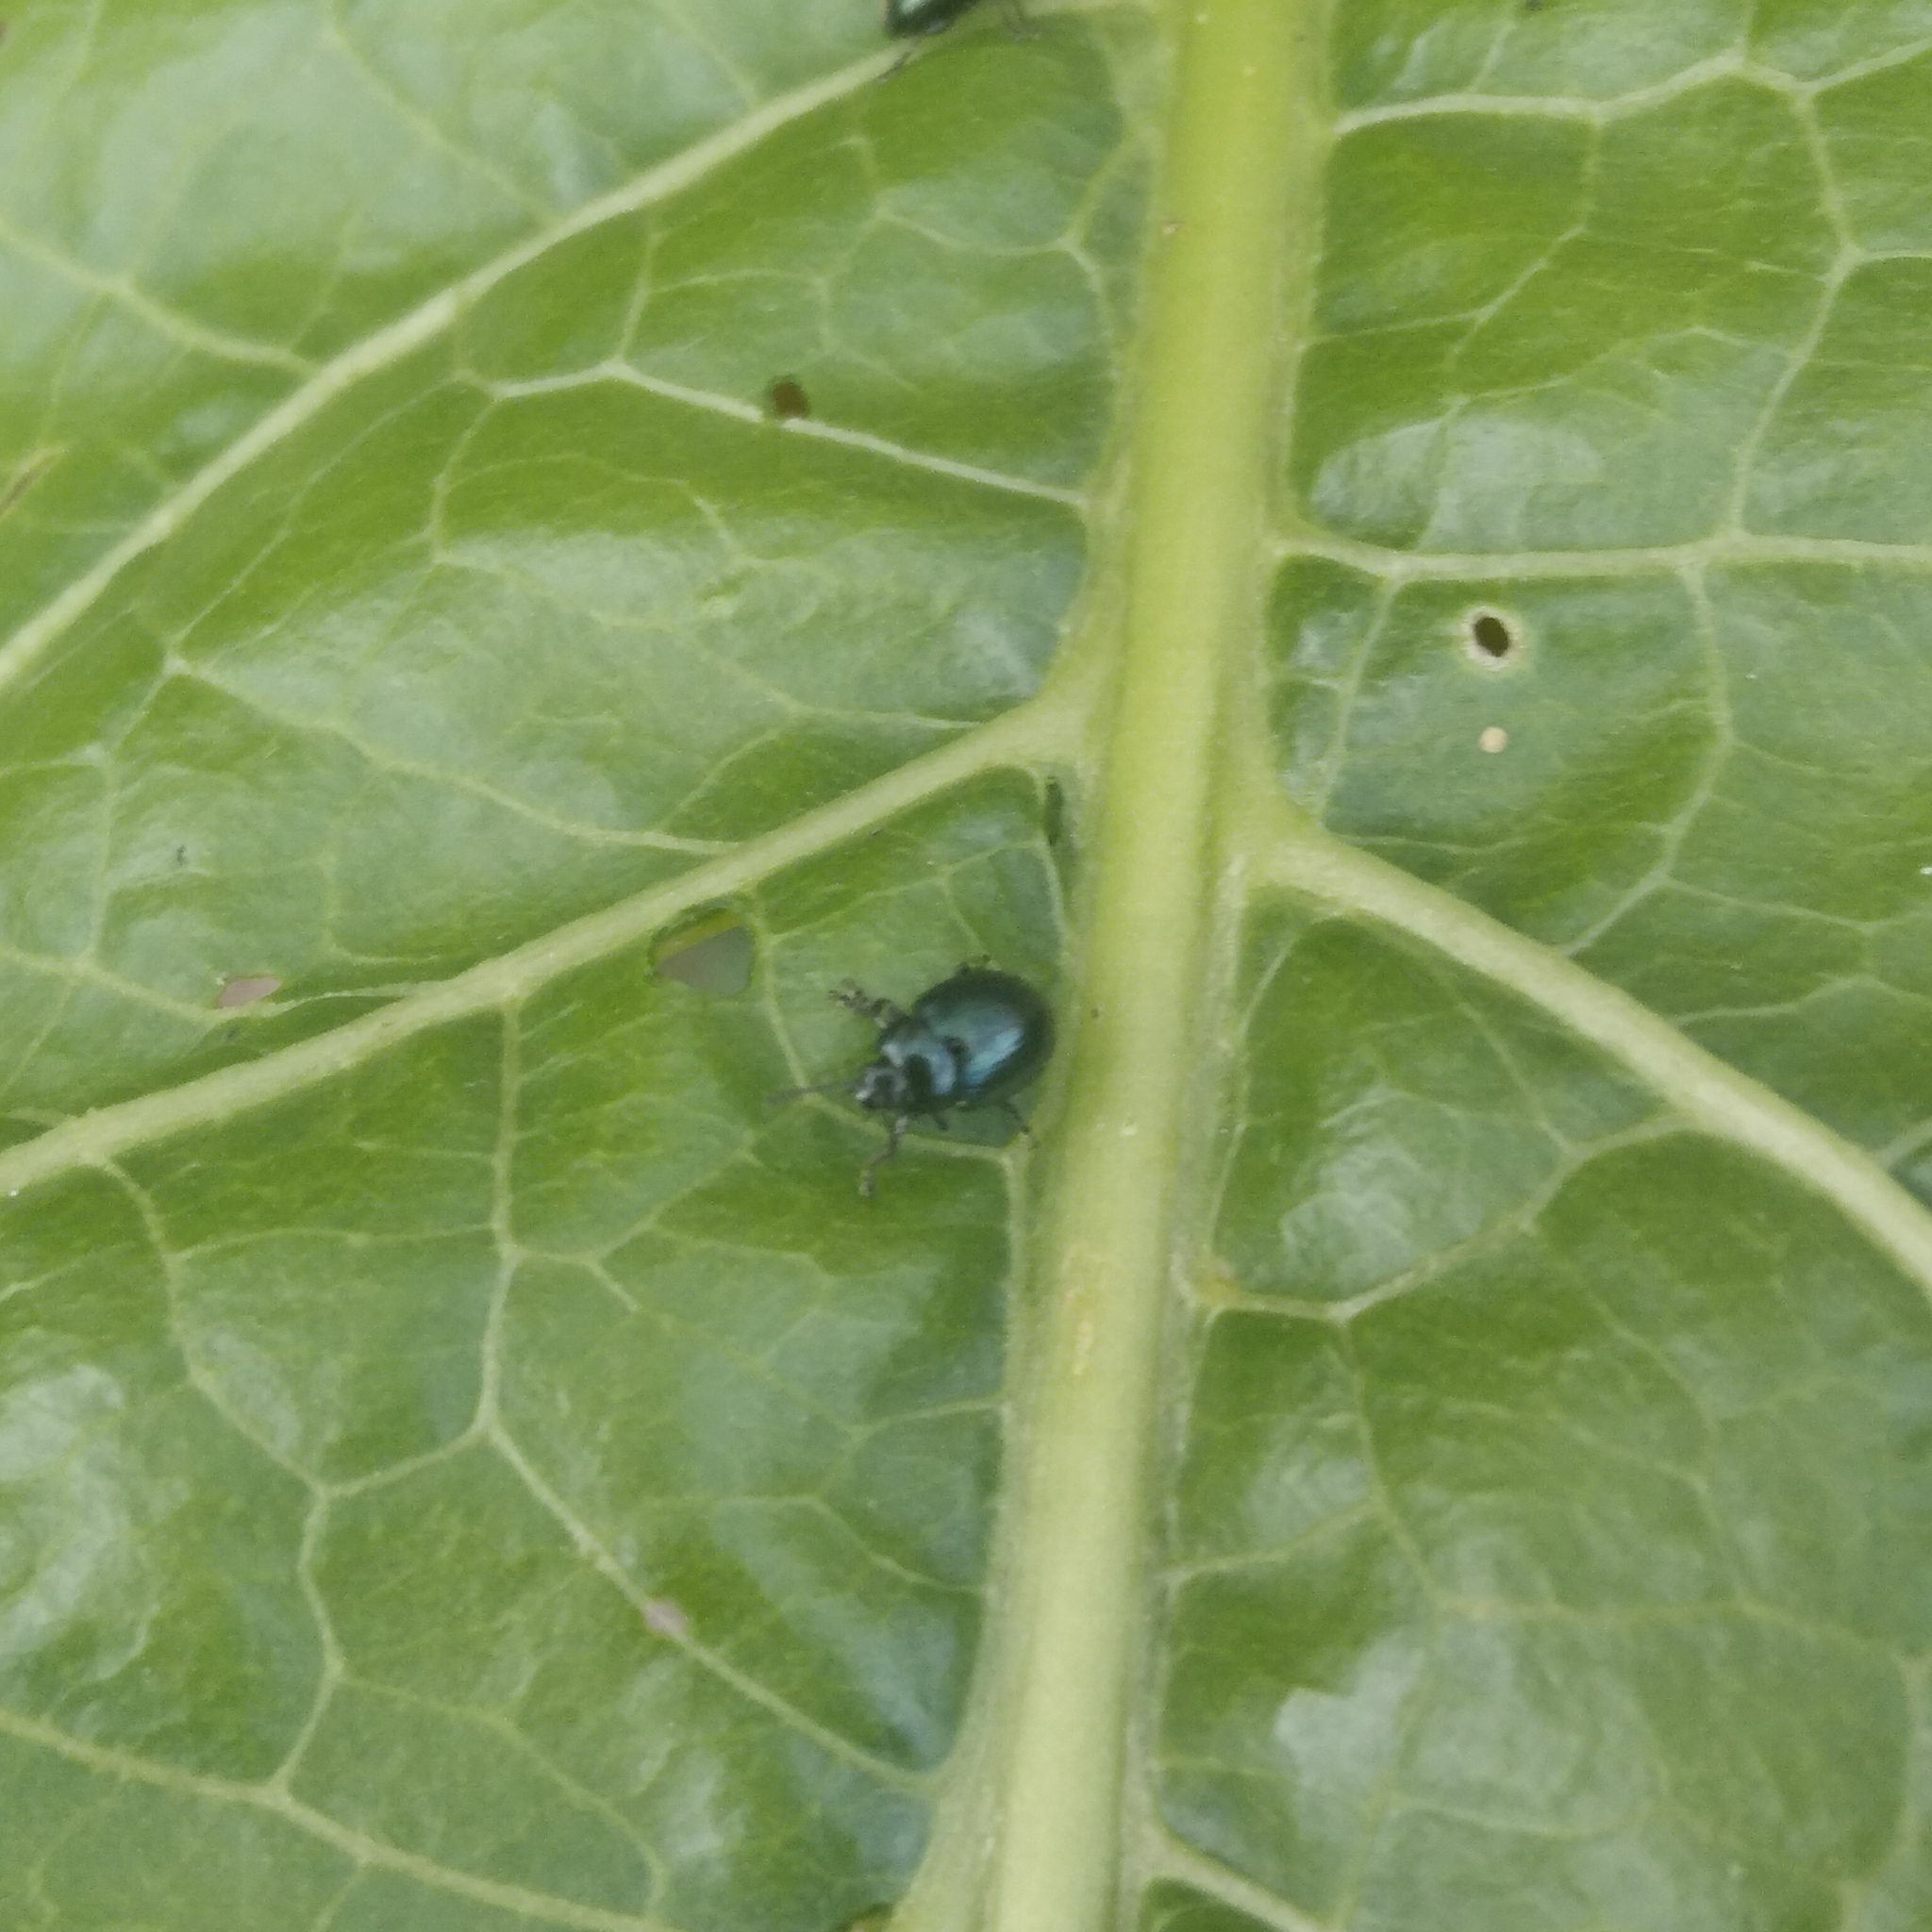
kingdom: Animalia
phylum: Arthropoda
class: Insecta
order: Coleoptera
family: Chrysomelidae
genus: Phaedon
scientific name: Phaedon
